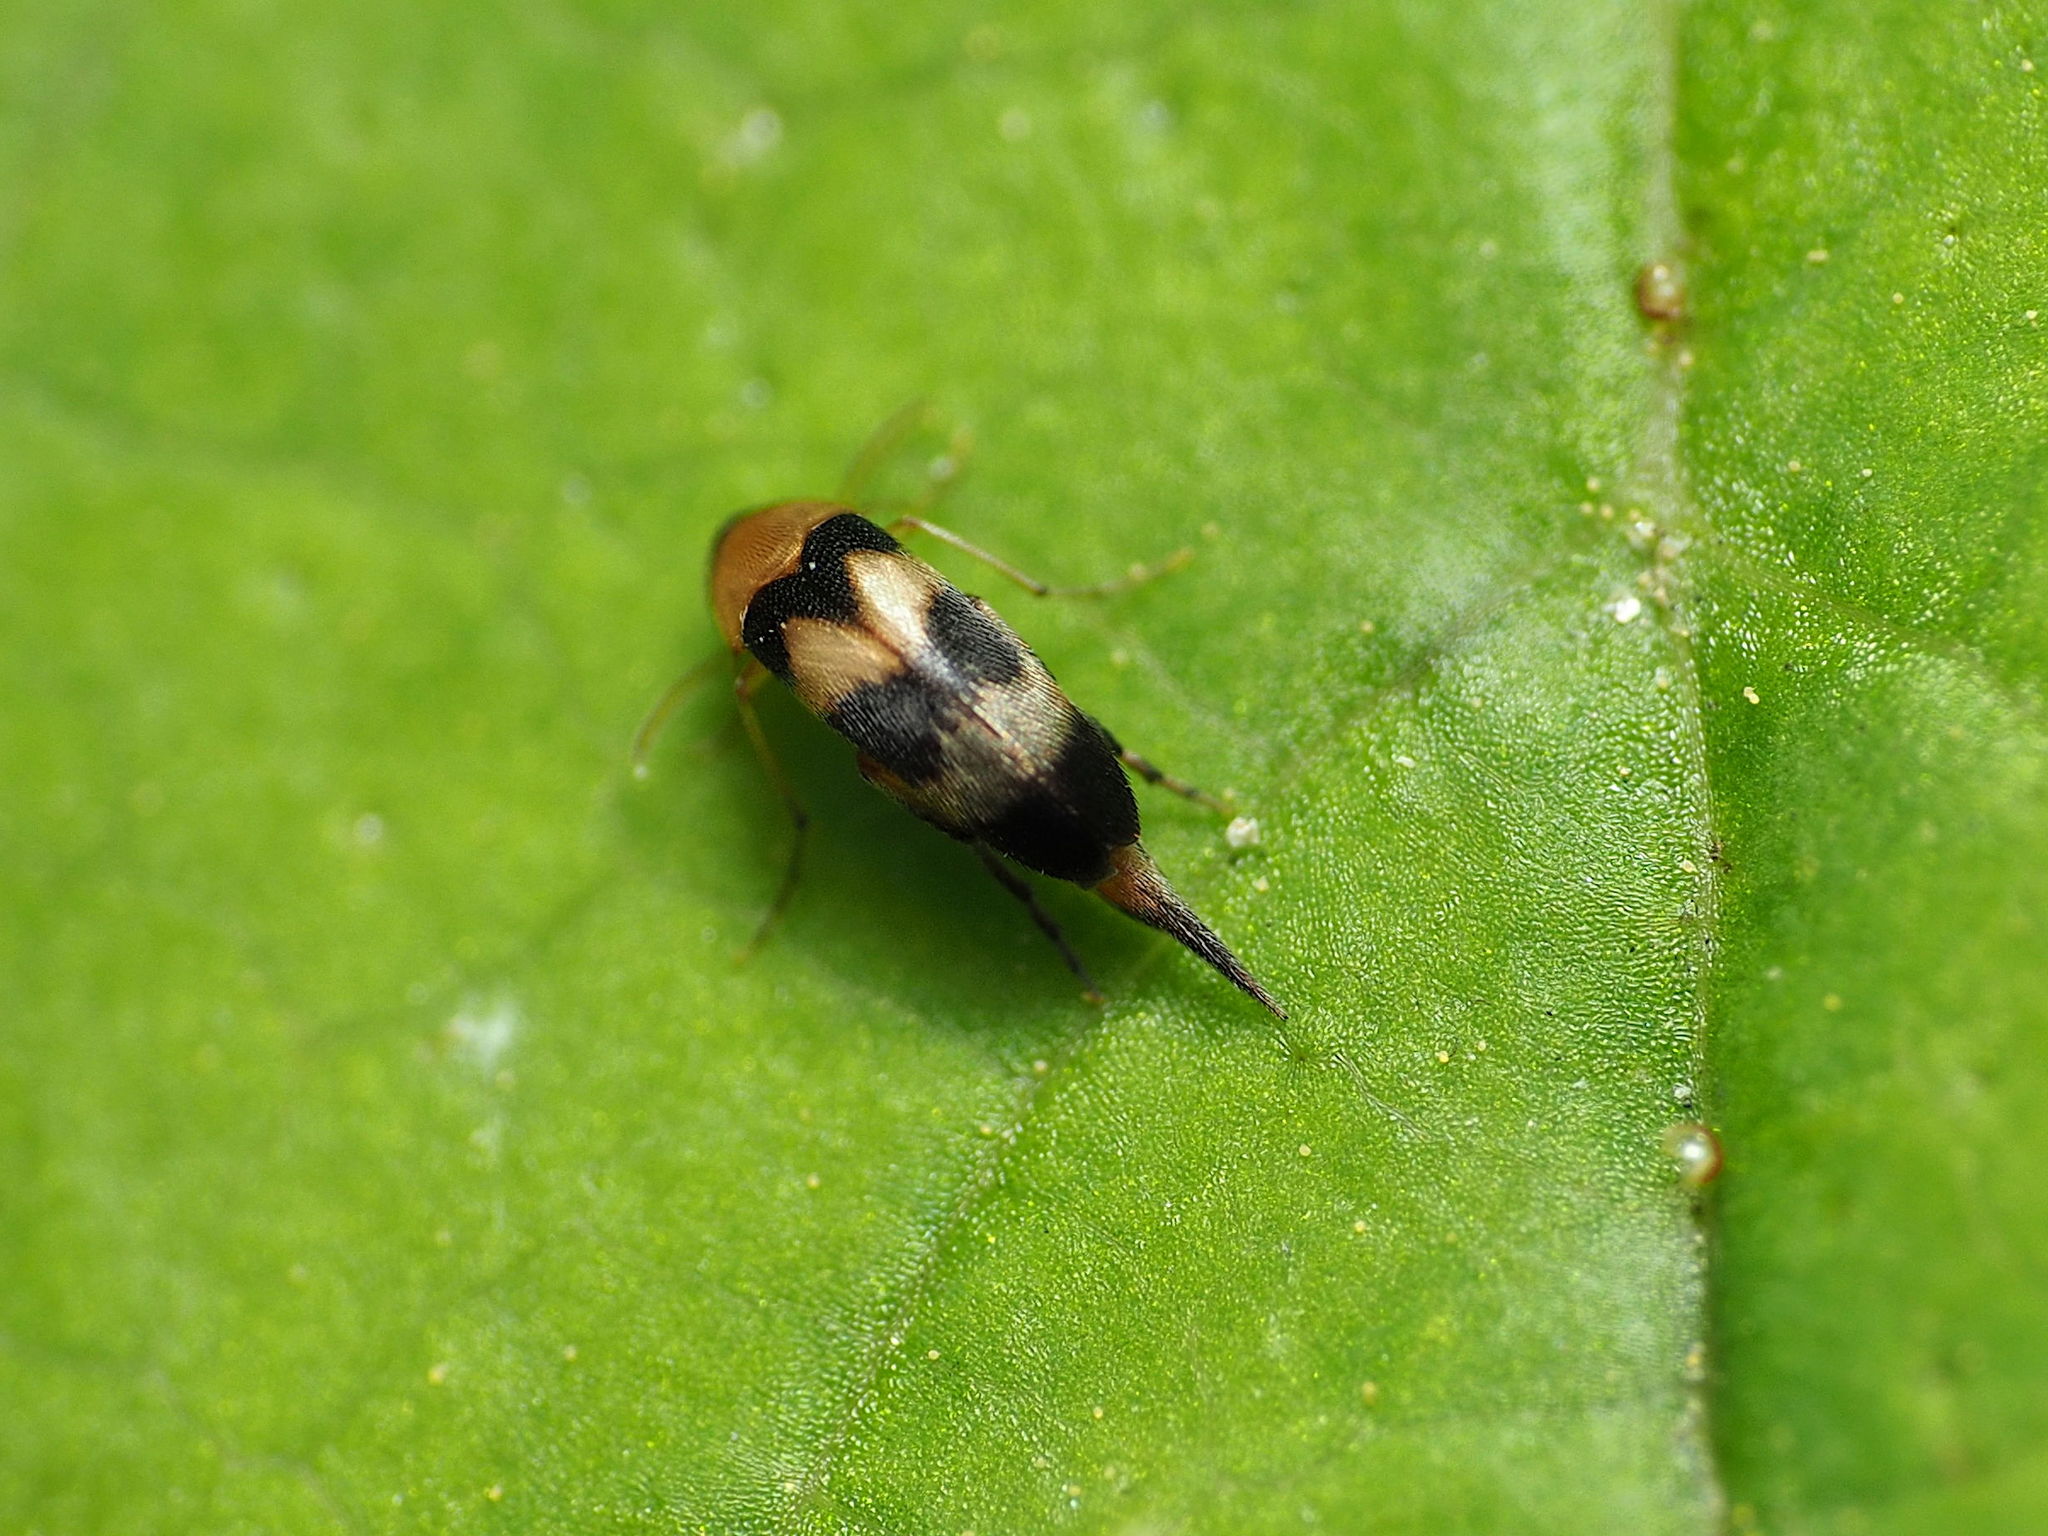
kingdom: Animalia
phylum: Arthropoda
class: Insecta
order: Coleoptera
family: Mordellidae
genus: Mordellistena
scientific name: Mordellistena trifasciata
